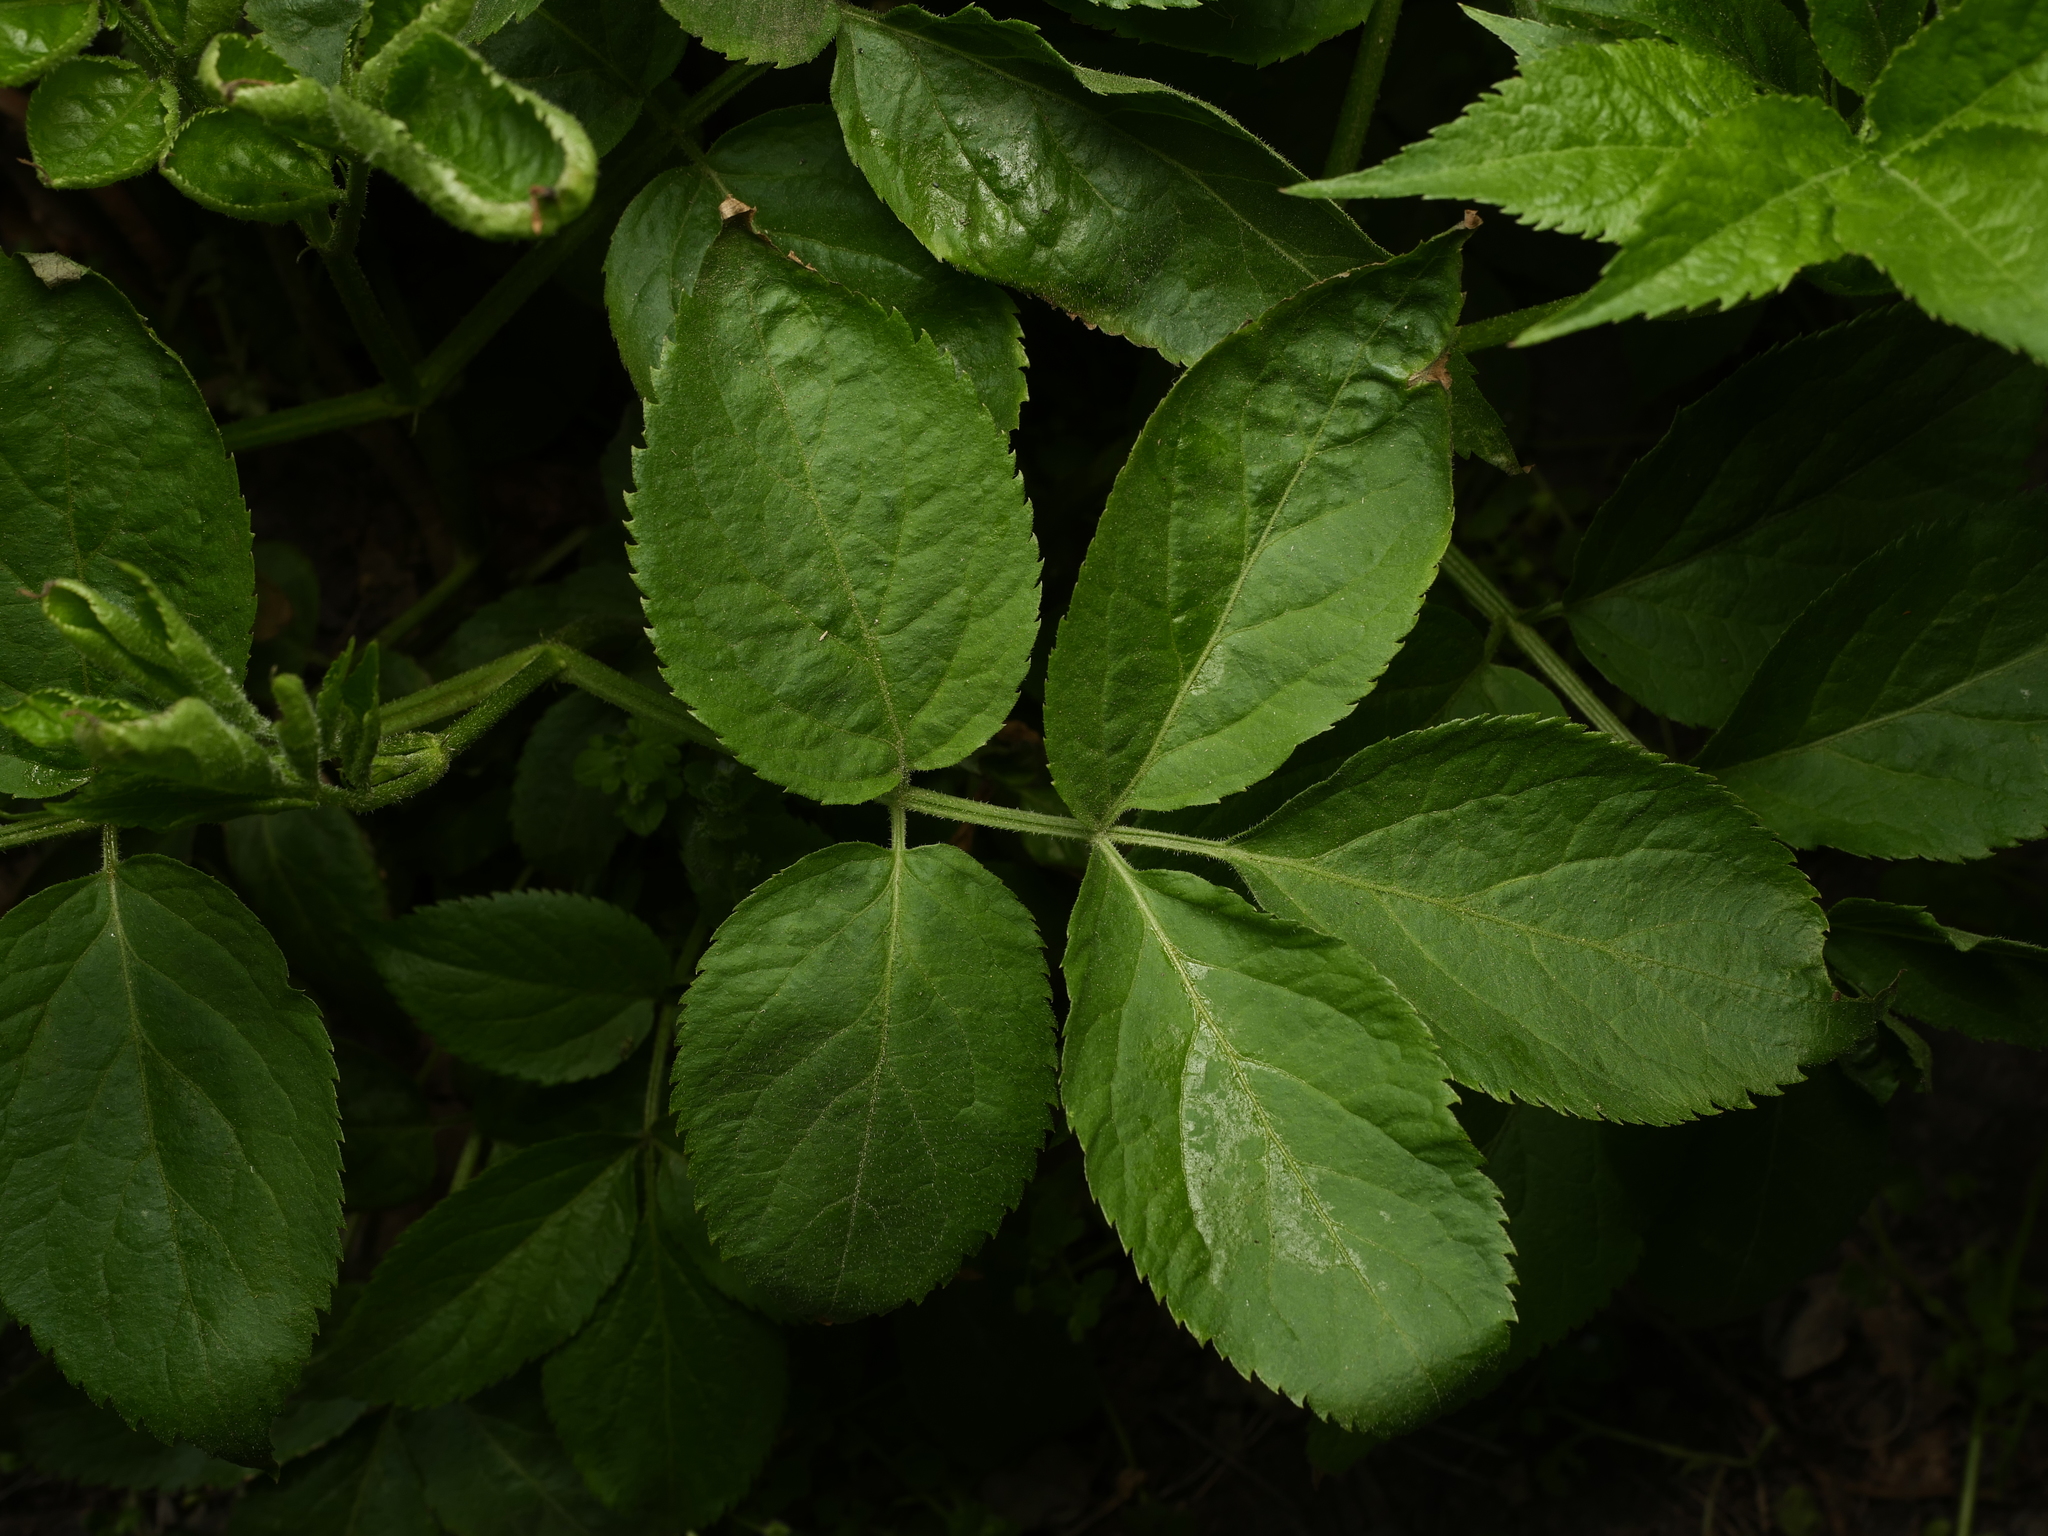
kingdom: Plantae
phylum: Tracheophyta
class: Magnoliopsida
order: Dipsacales
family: Viburnaceae
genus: Sambucus
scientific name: Sambucus nigra
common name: Elder
